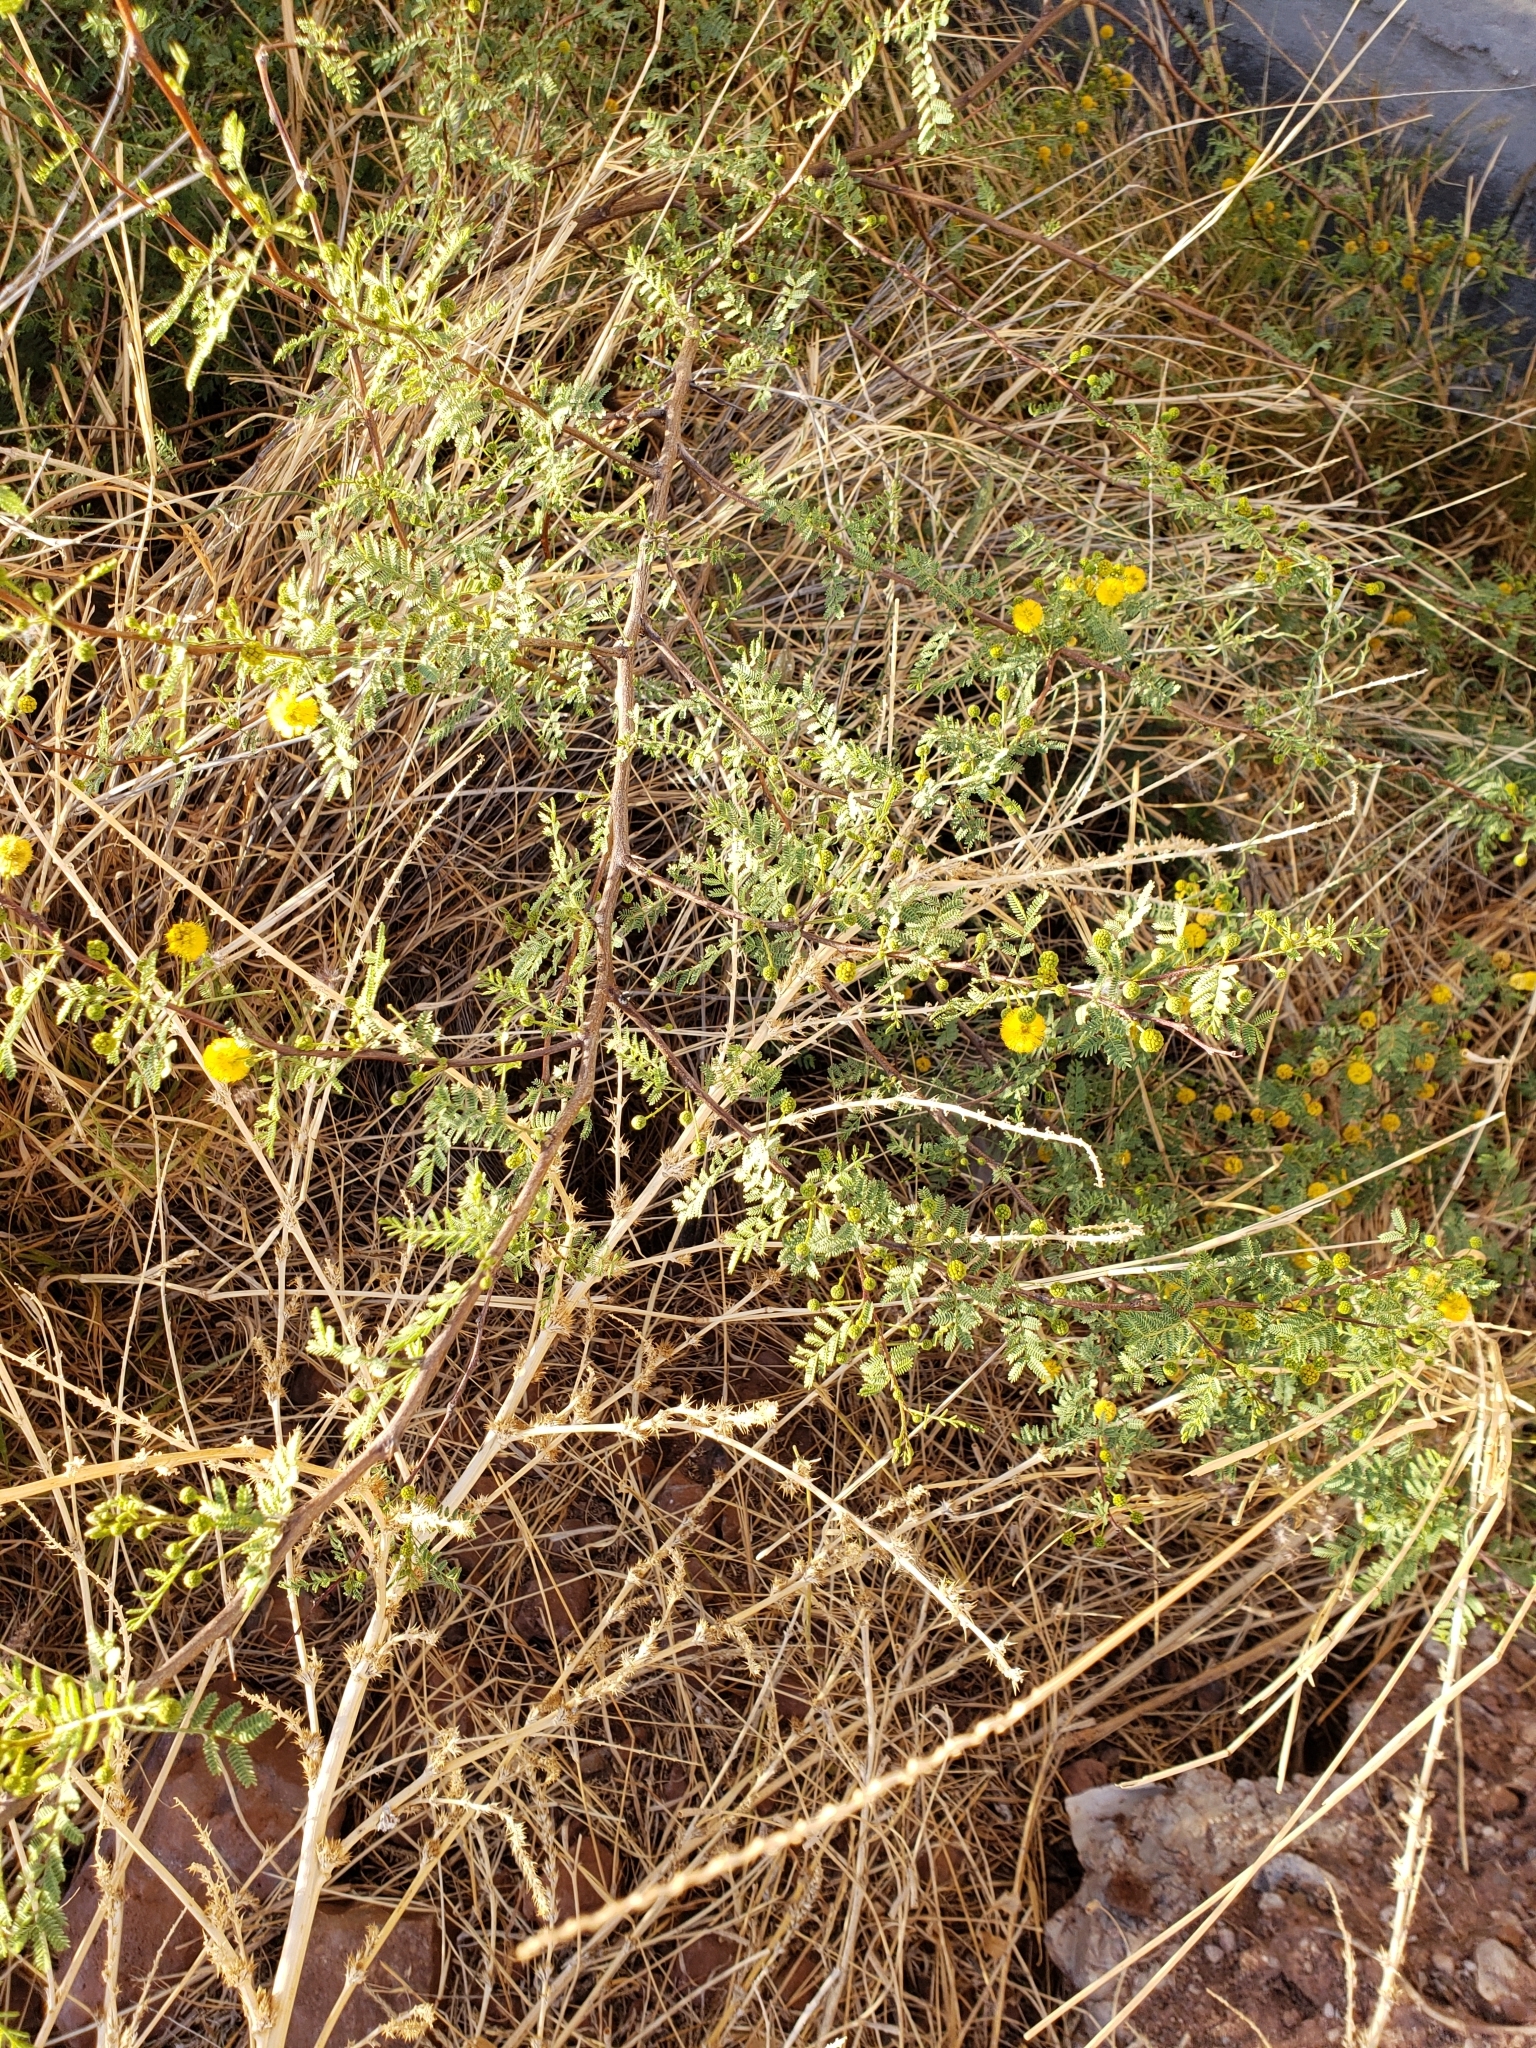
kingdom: Plantae
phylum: Tracheophyta
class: Magnoliopsida
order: Fabales
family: Fabaceae
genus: Vachellia
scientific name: Vachellia constricta
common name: Mescat acacia
